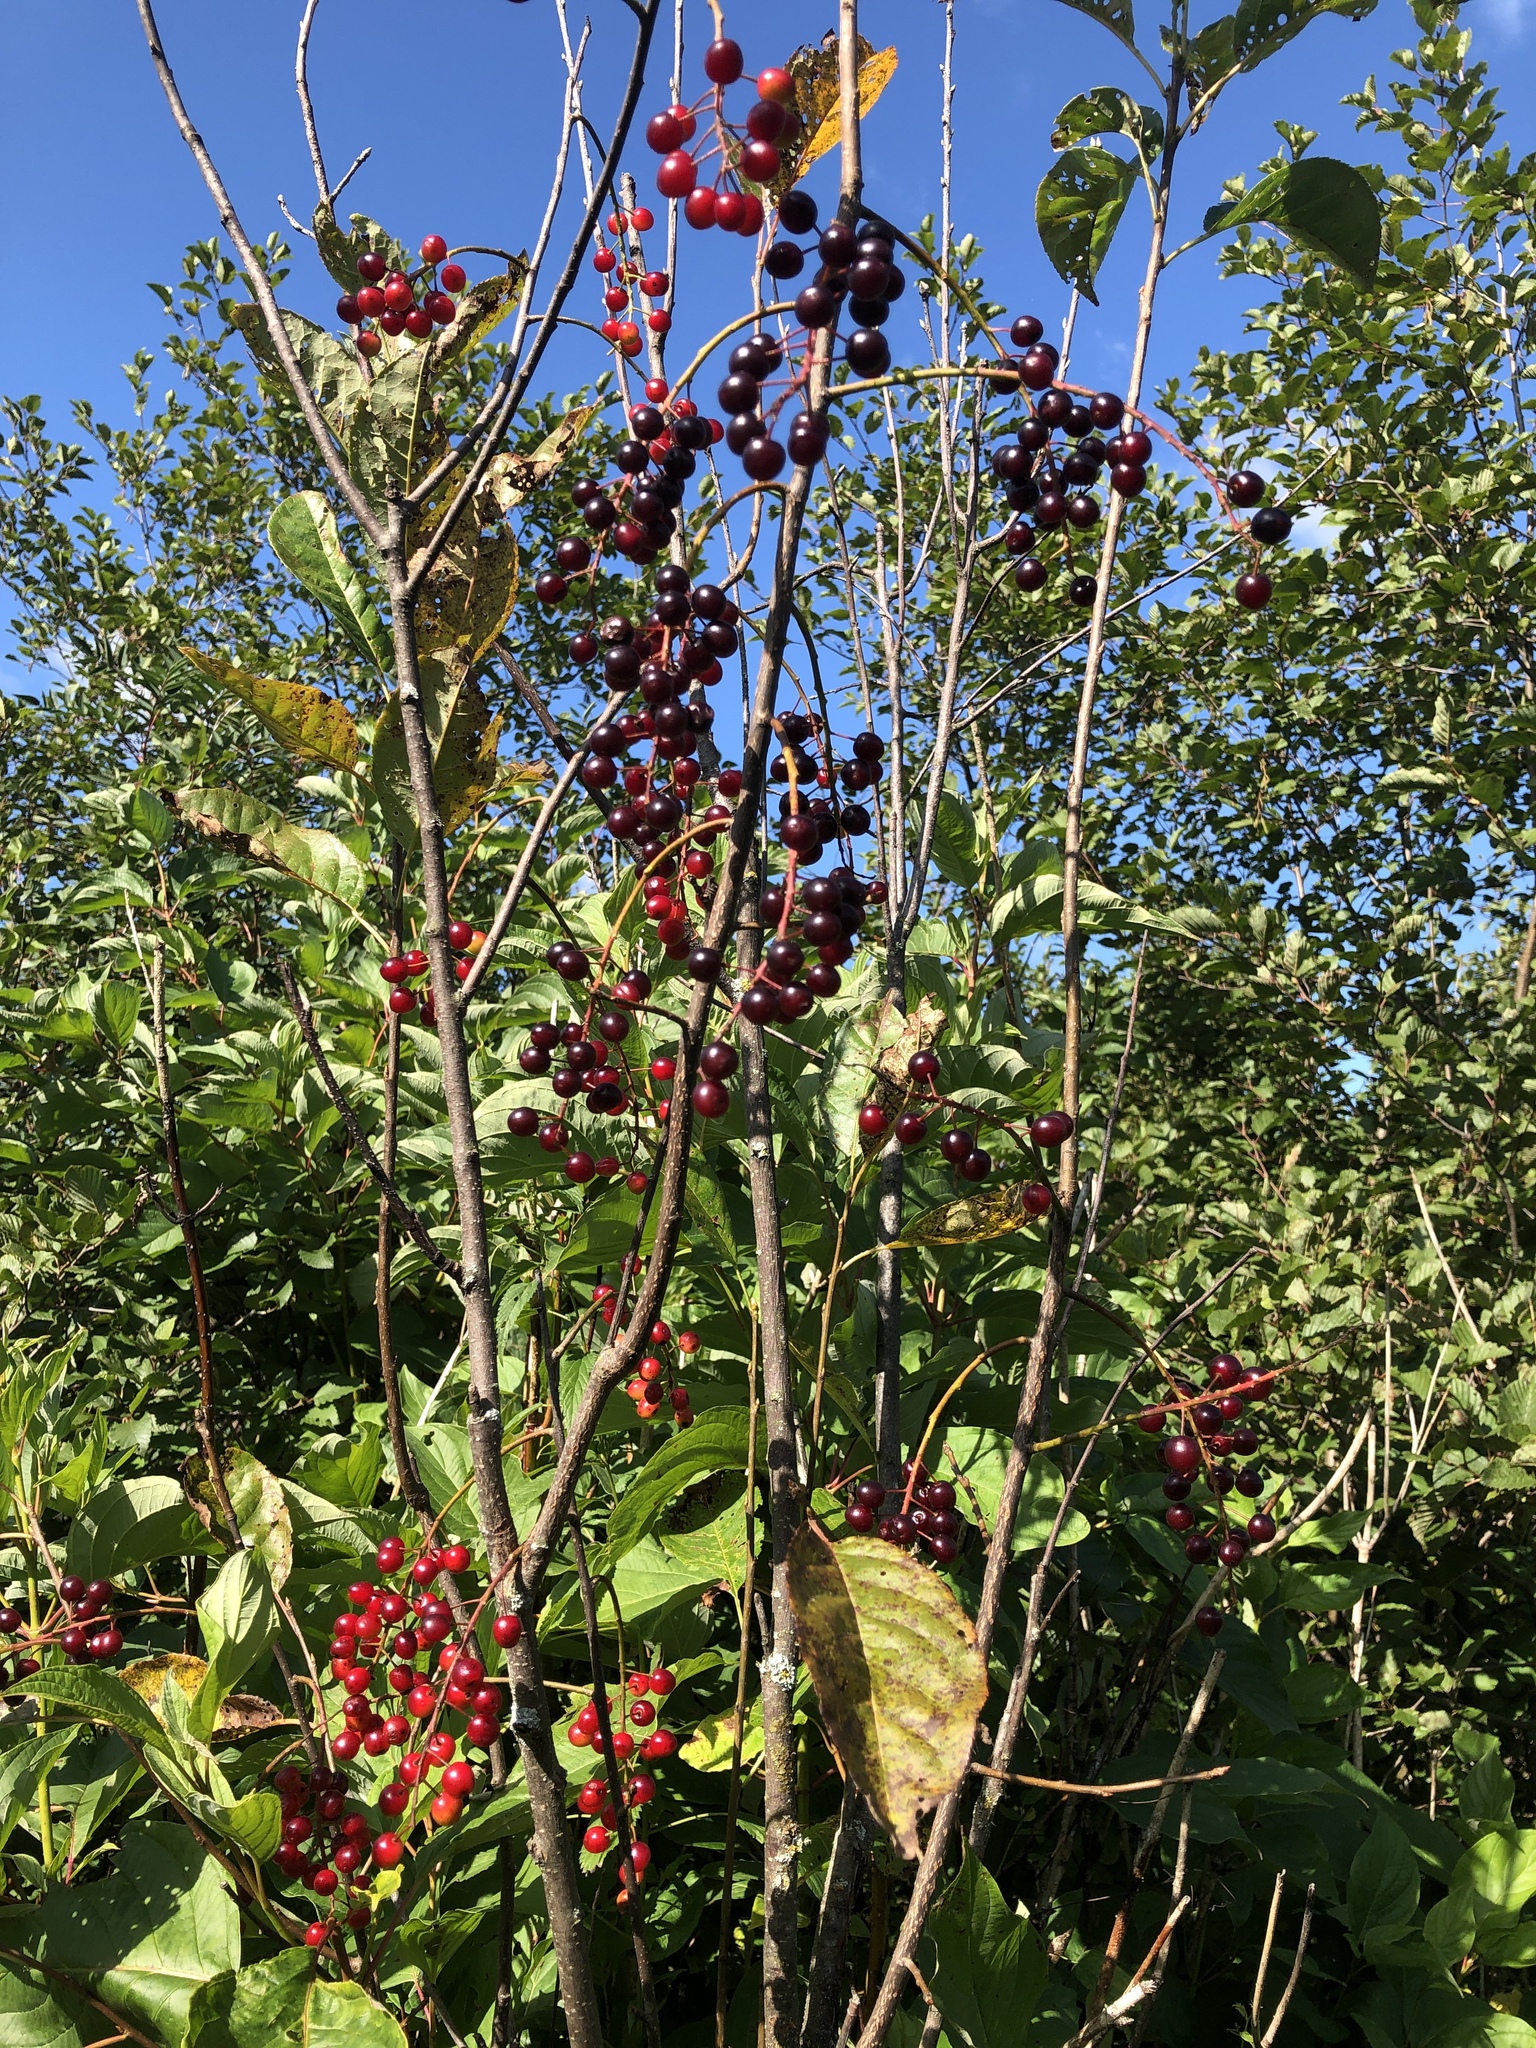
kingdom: Plantae
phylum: Tracheophyta
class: Magnoliopsida
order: Rosales
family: Rosaceae
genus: Prunus
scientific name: Prunus virginiana
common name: Chokecherry
